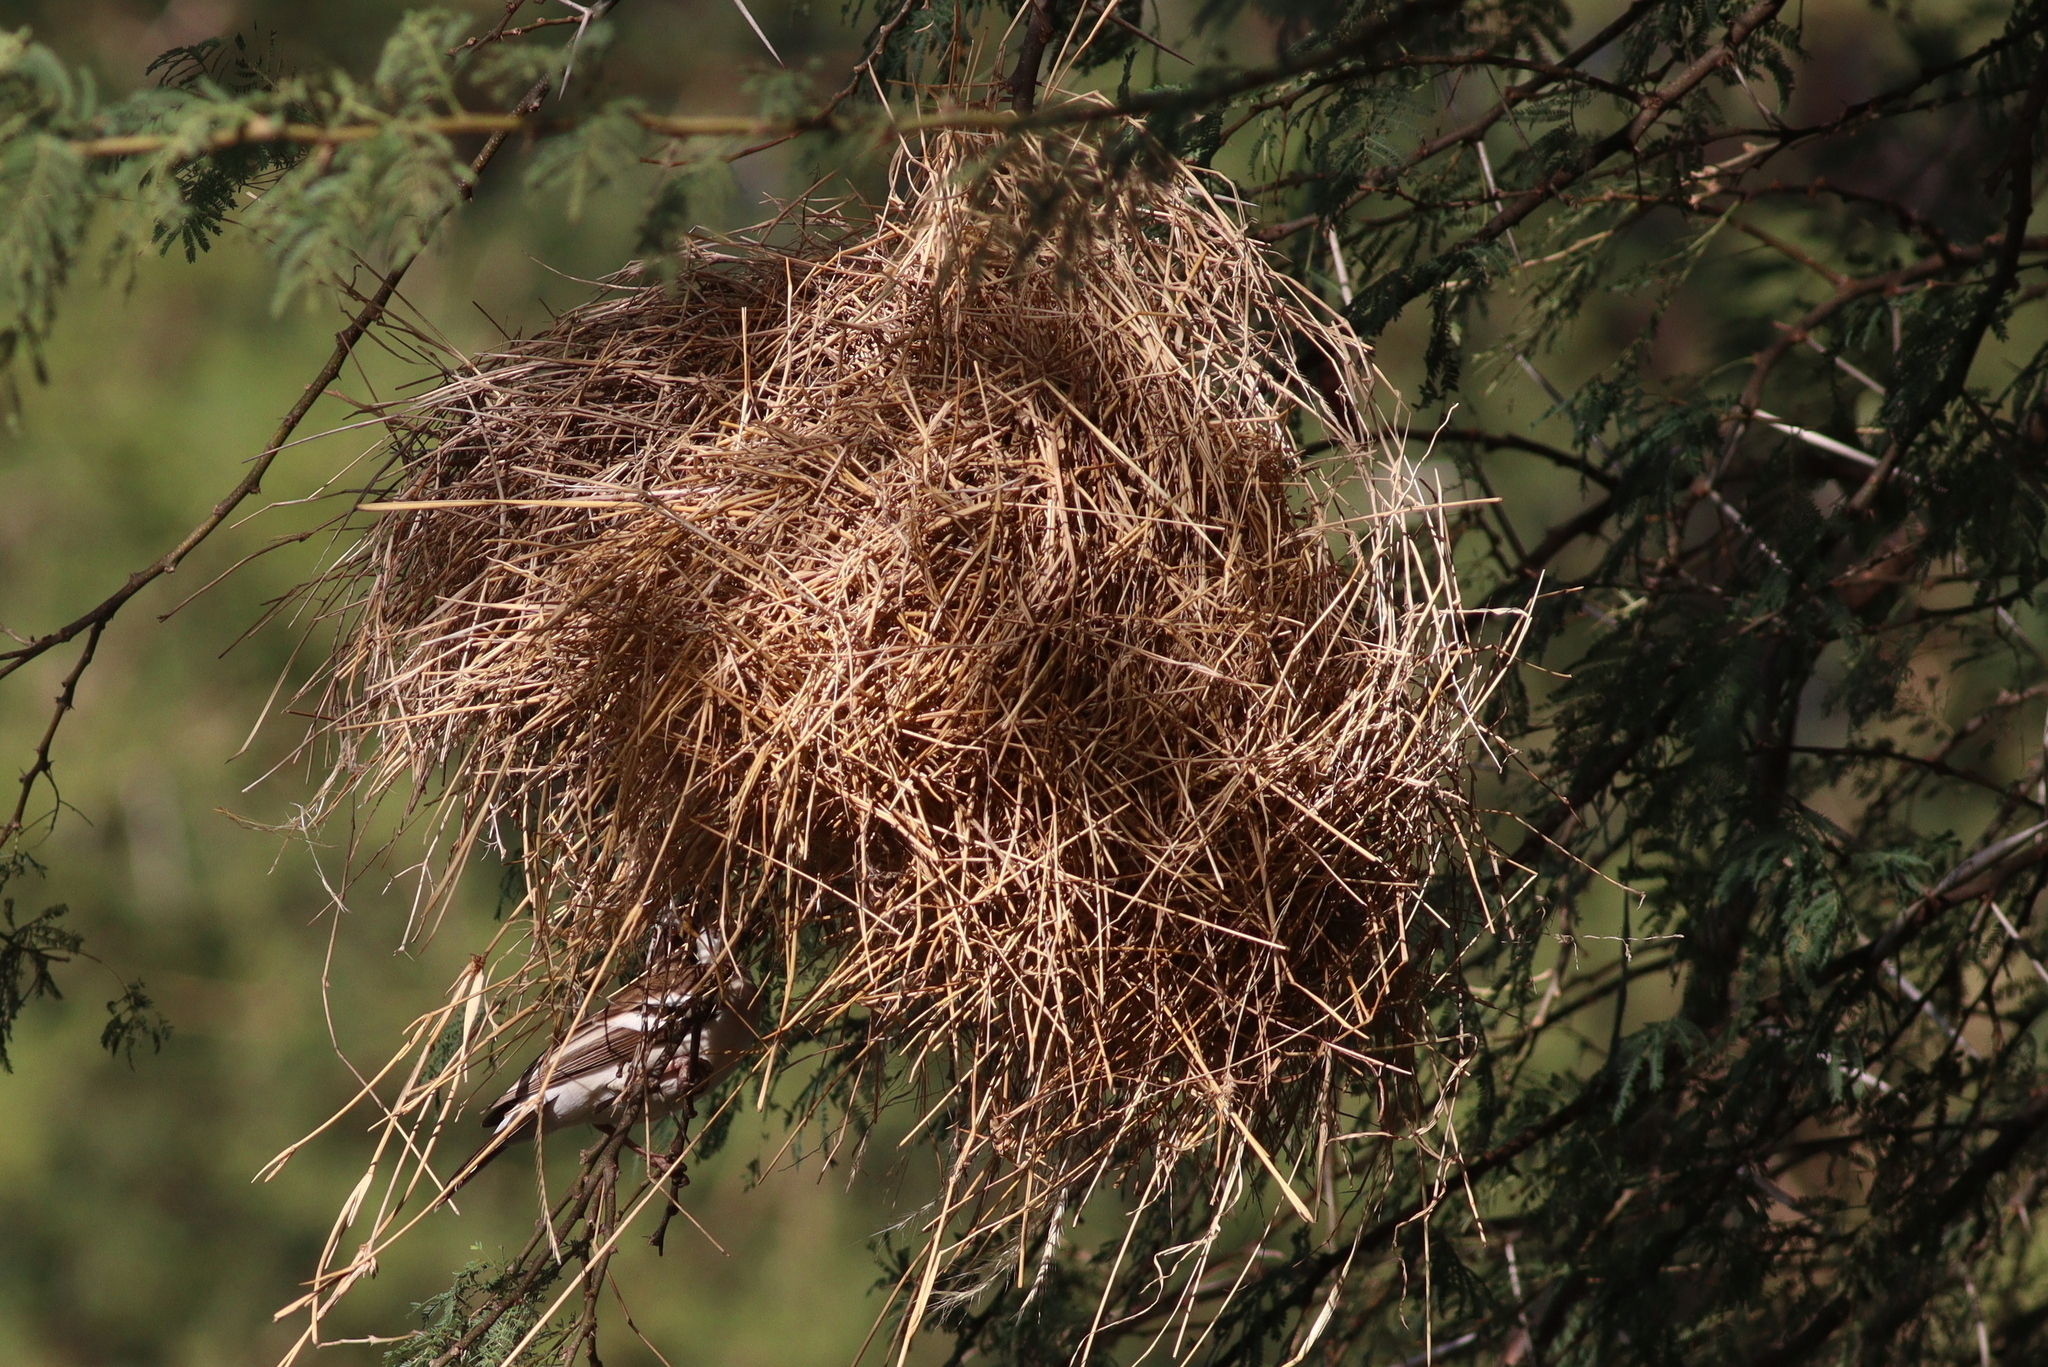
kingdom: Animalia
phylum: Chordata
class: Aves
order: Passeriformes
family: Passeridae
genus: Plocepasser
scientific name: Plocepasser mahali
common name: White-browed sparrow-weaver
